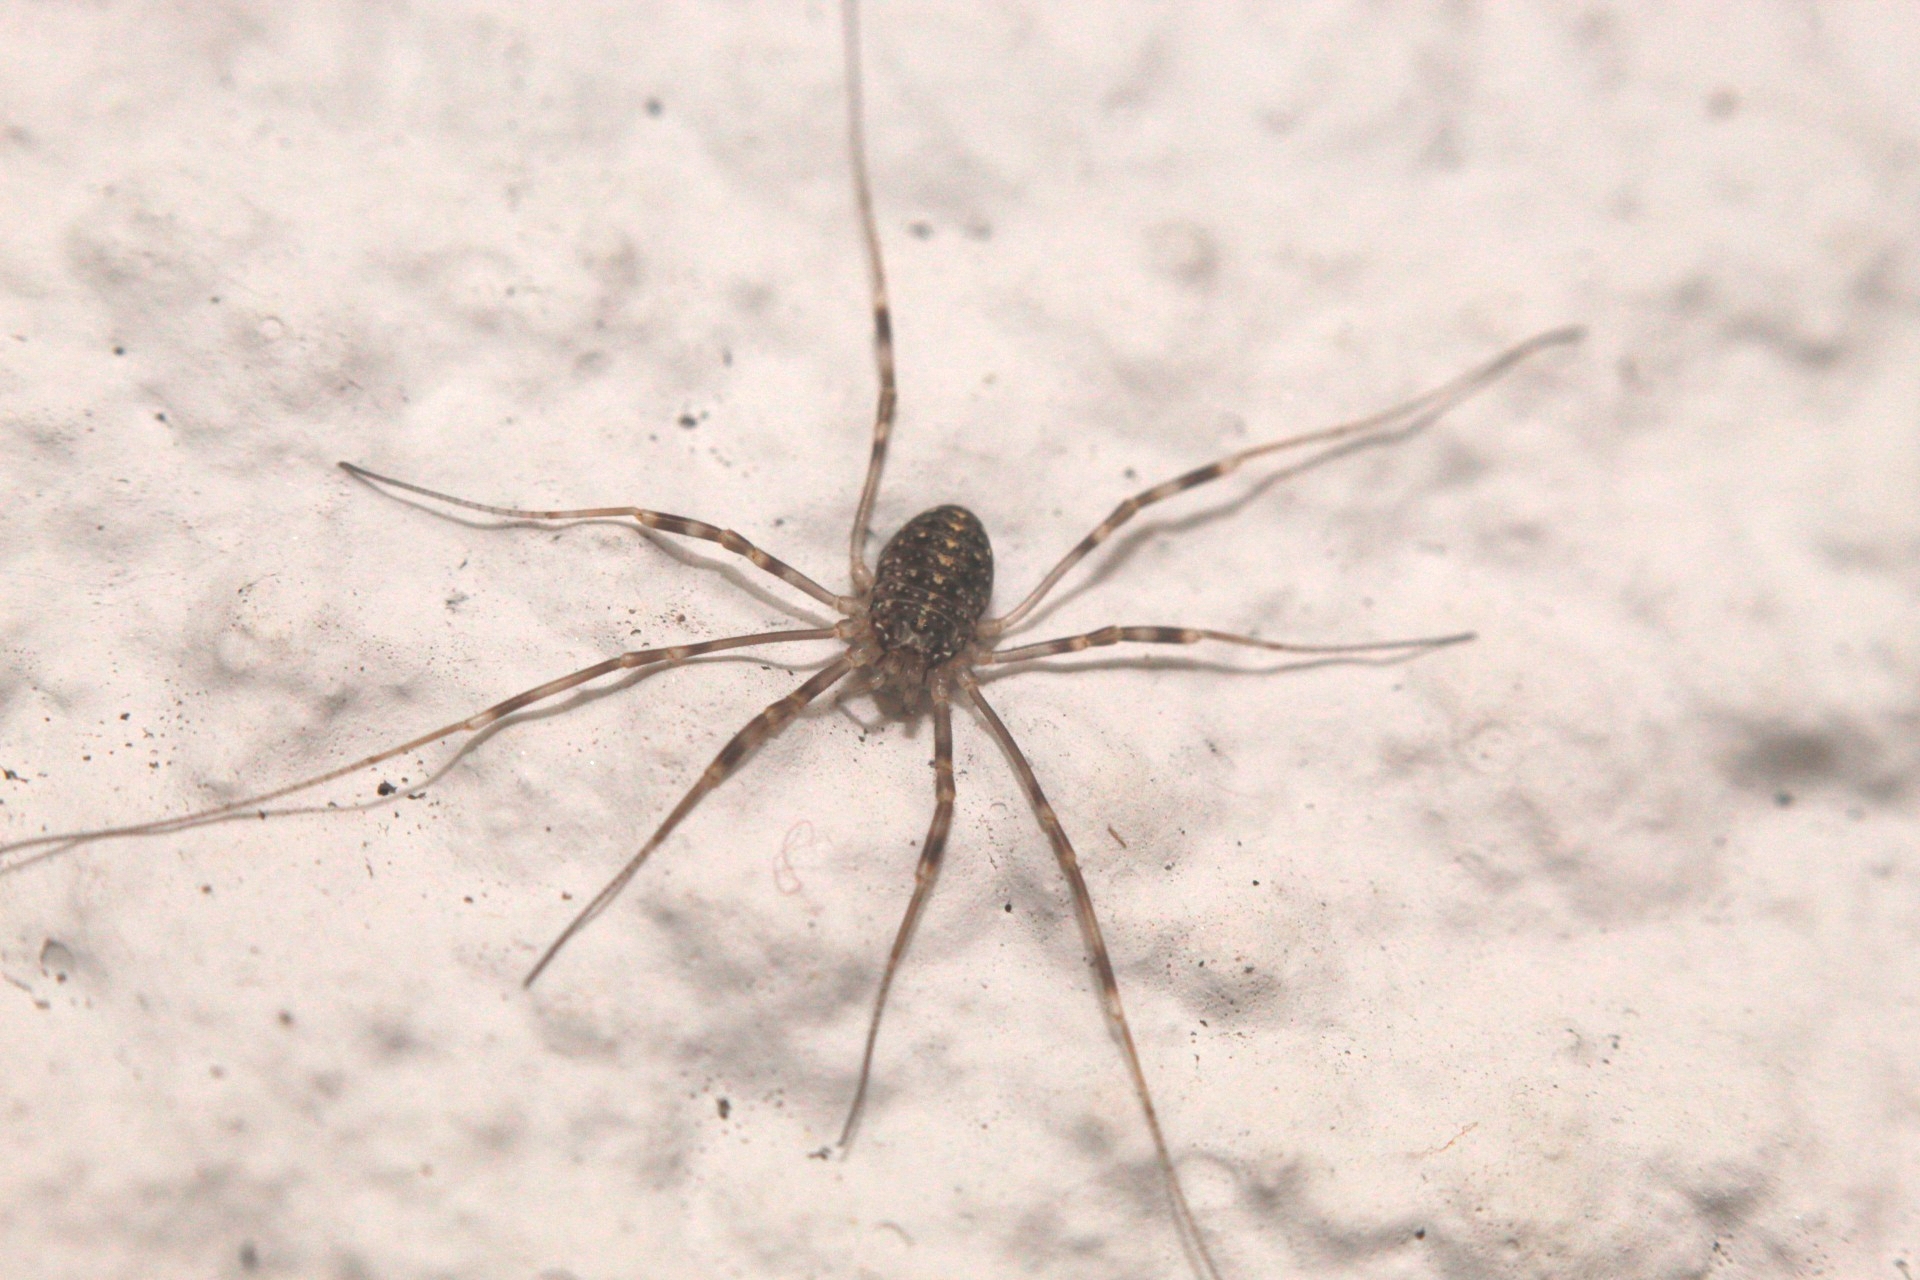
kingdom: Animalia
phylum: Arthropoda
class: Arachnida
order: Opiliones
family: Phalangiidae
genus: Opilio
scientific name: Opilio saxatilis
